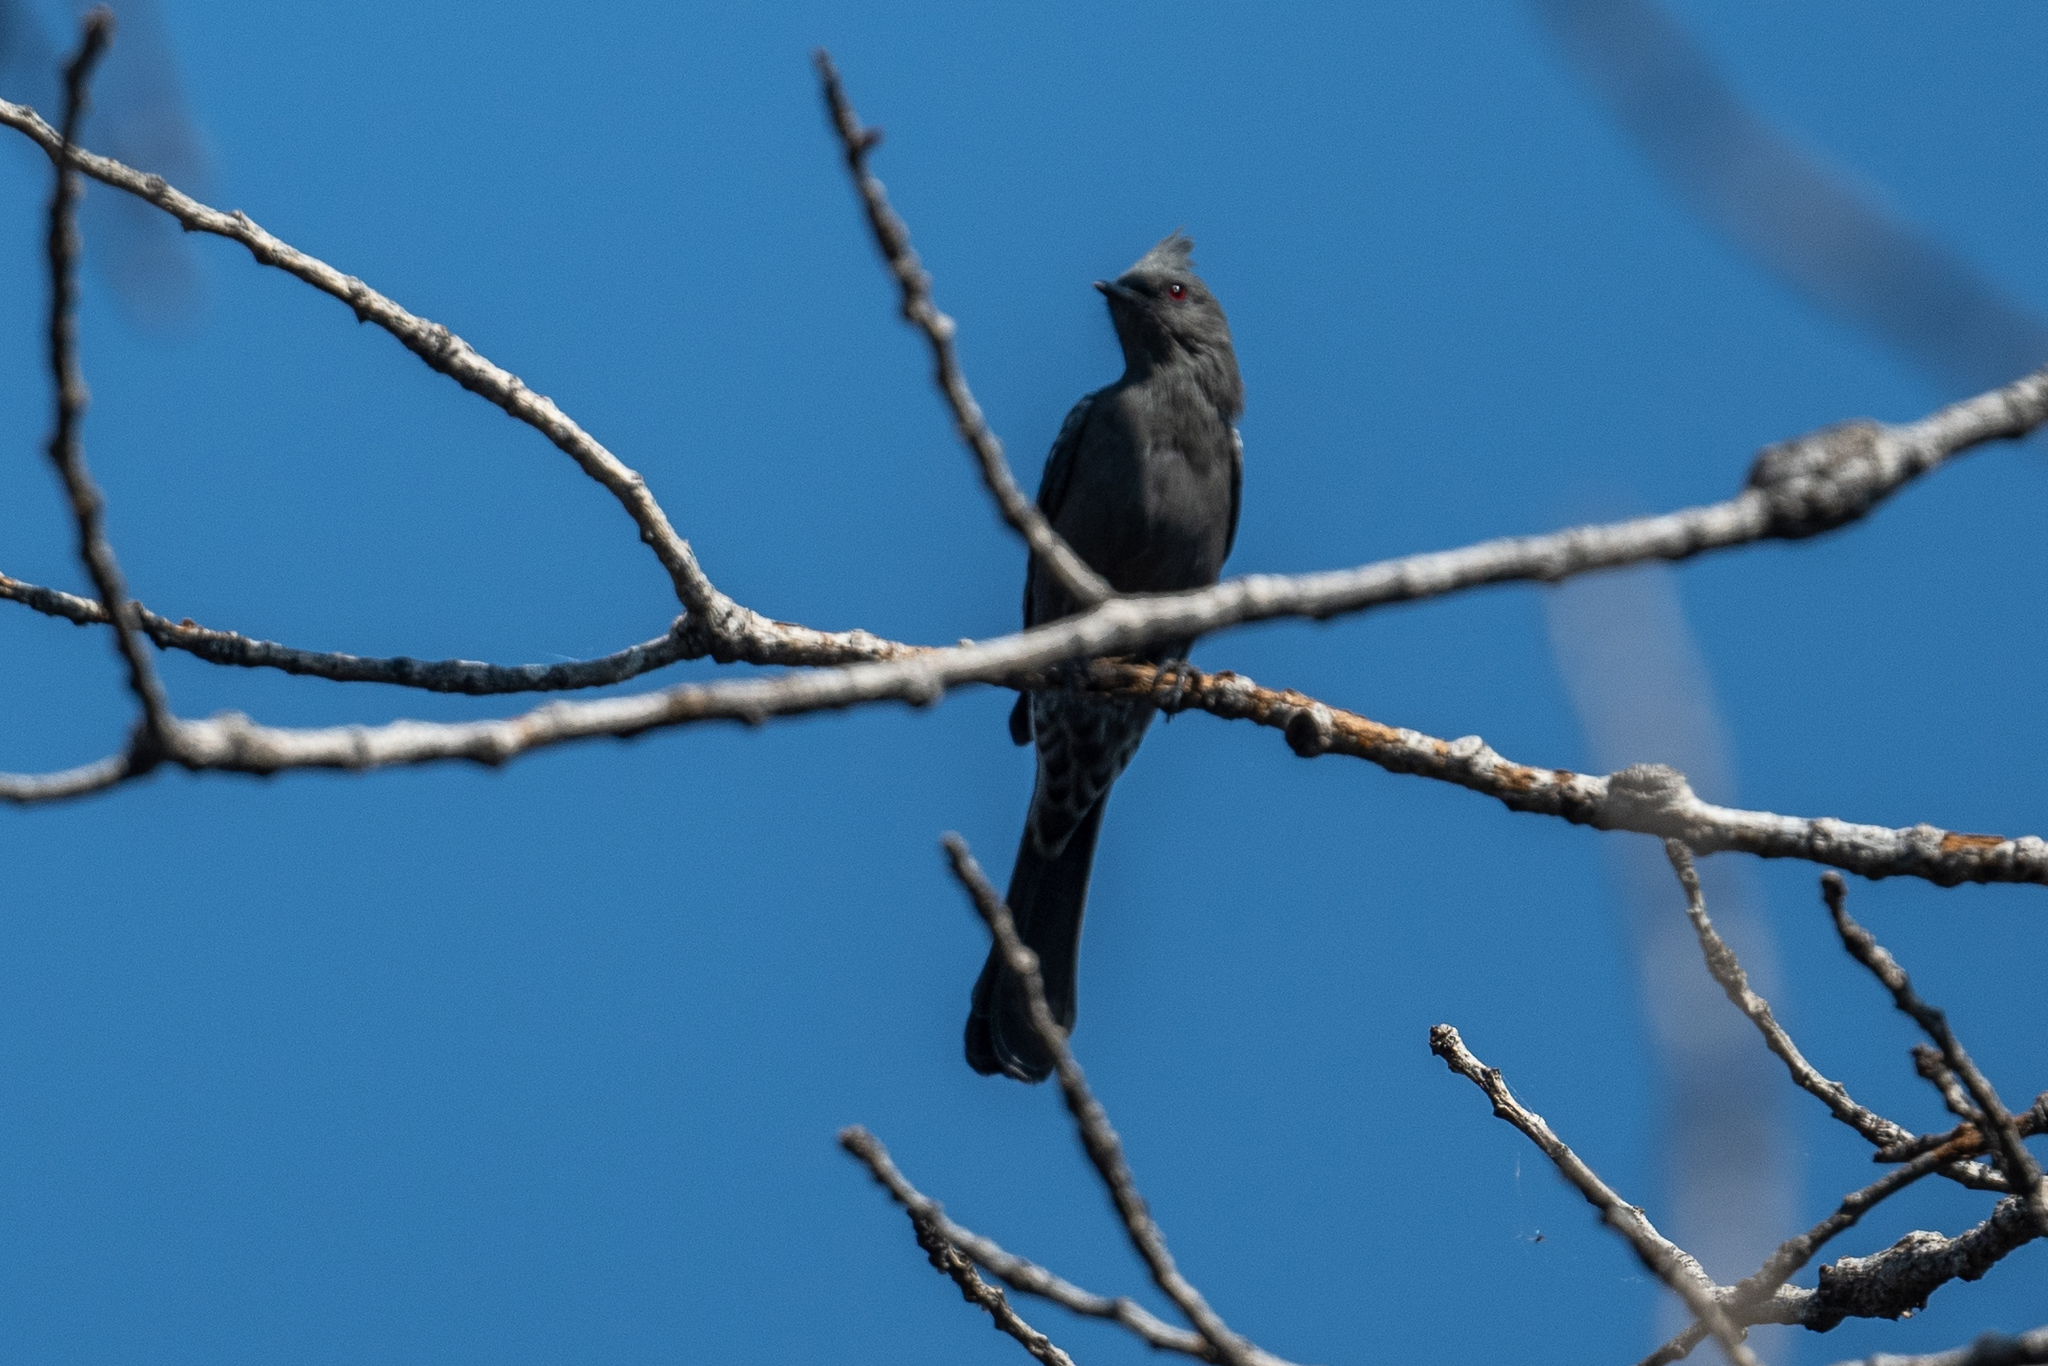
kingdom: Animalia
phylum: Chordata
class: Aves
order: Passeriformes
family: Ptilogonatidae
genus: Phainopepla
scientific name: Phainopepla nitens
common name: Phainopepla
